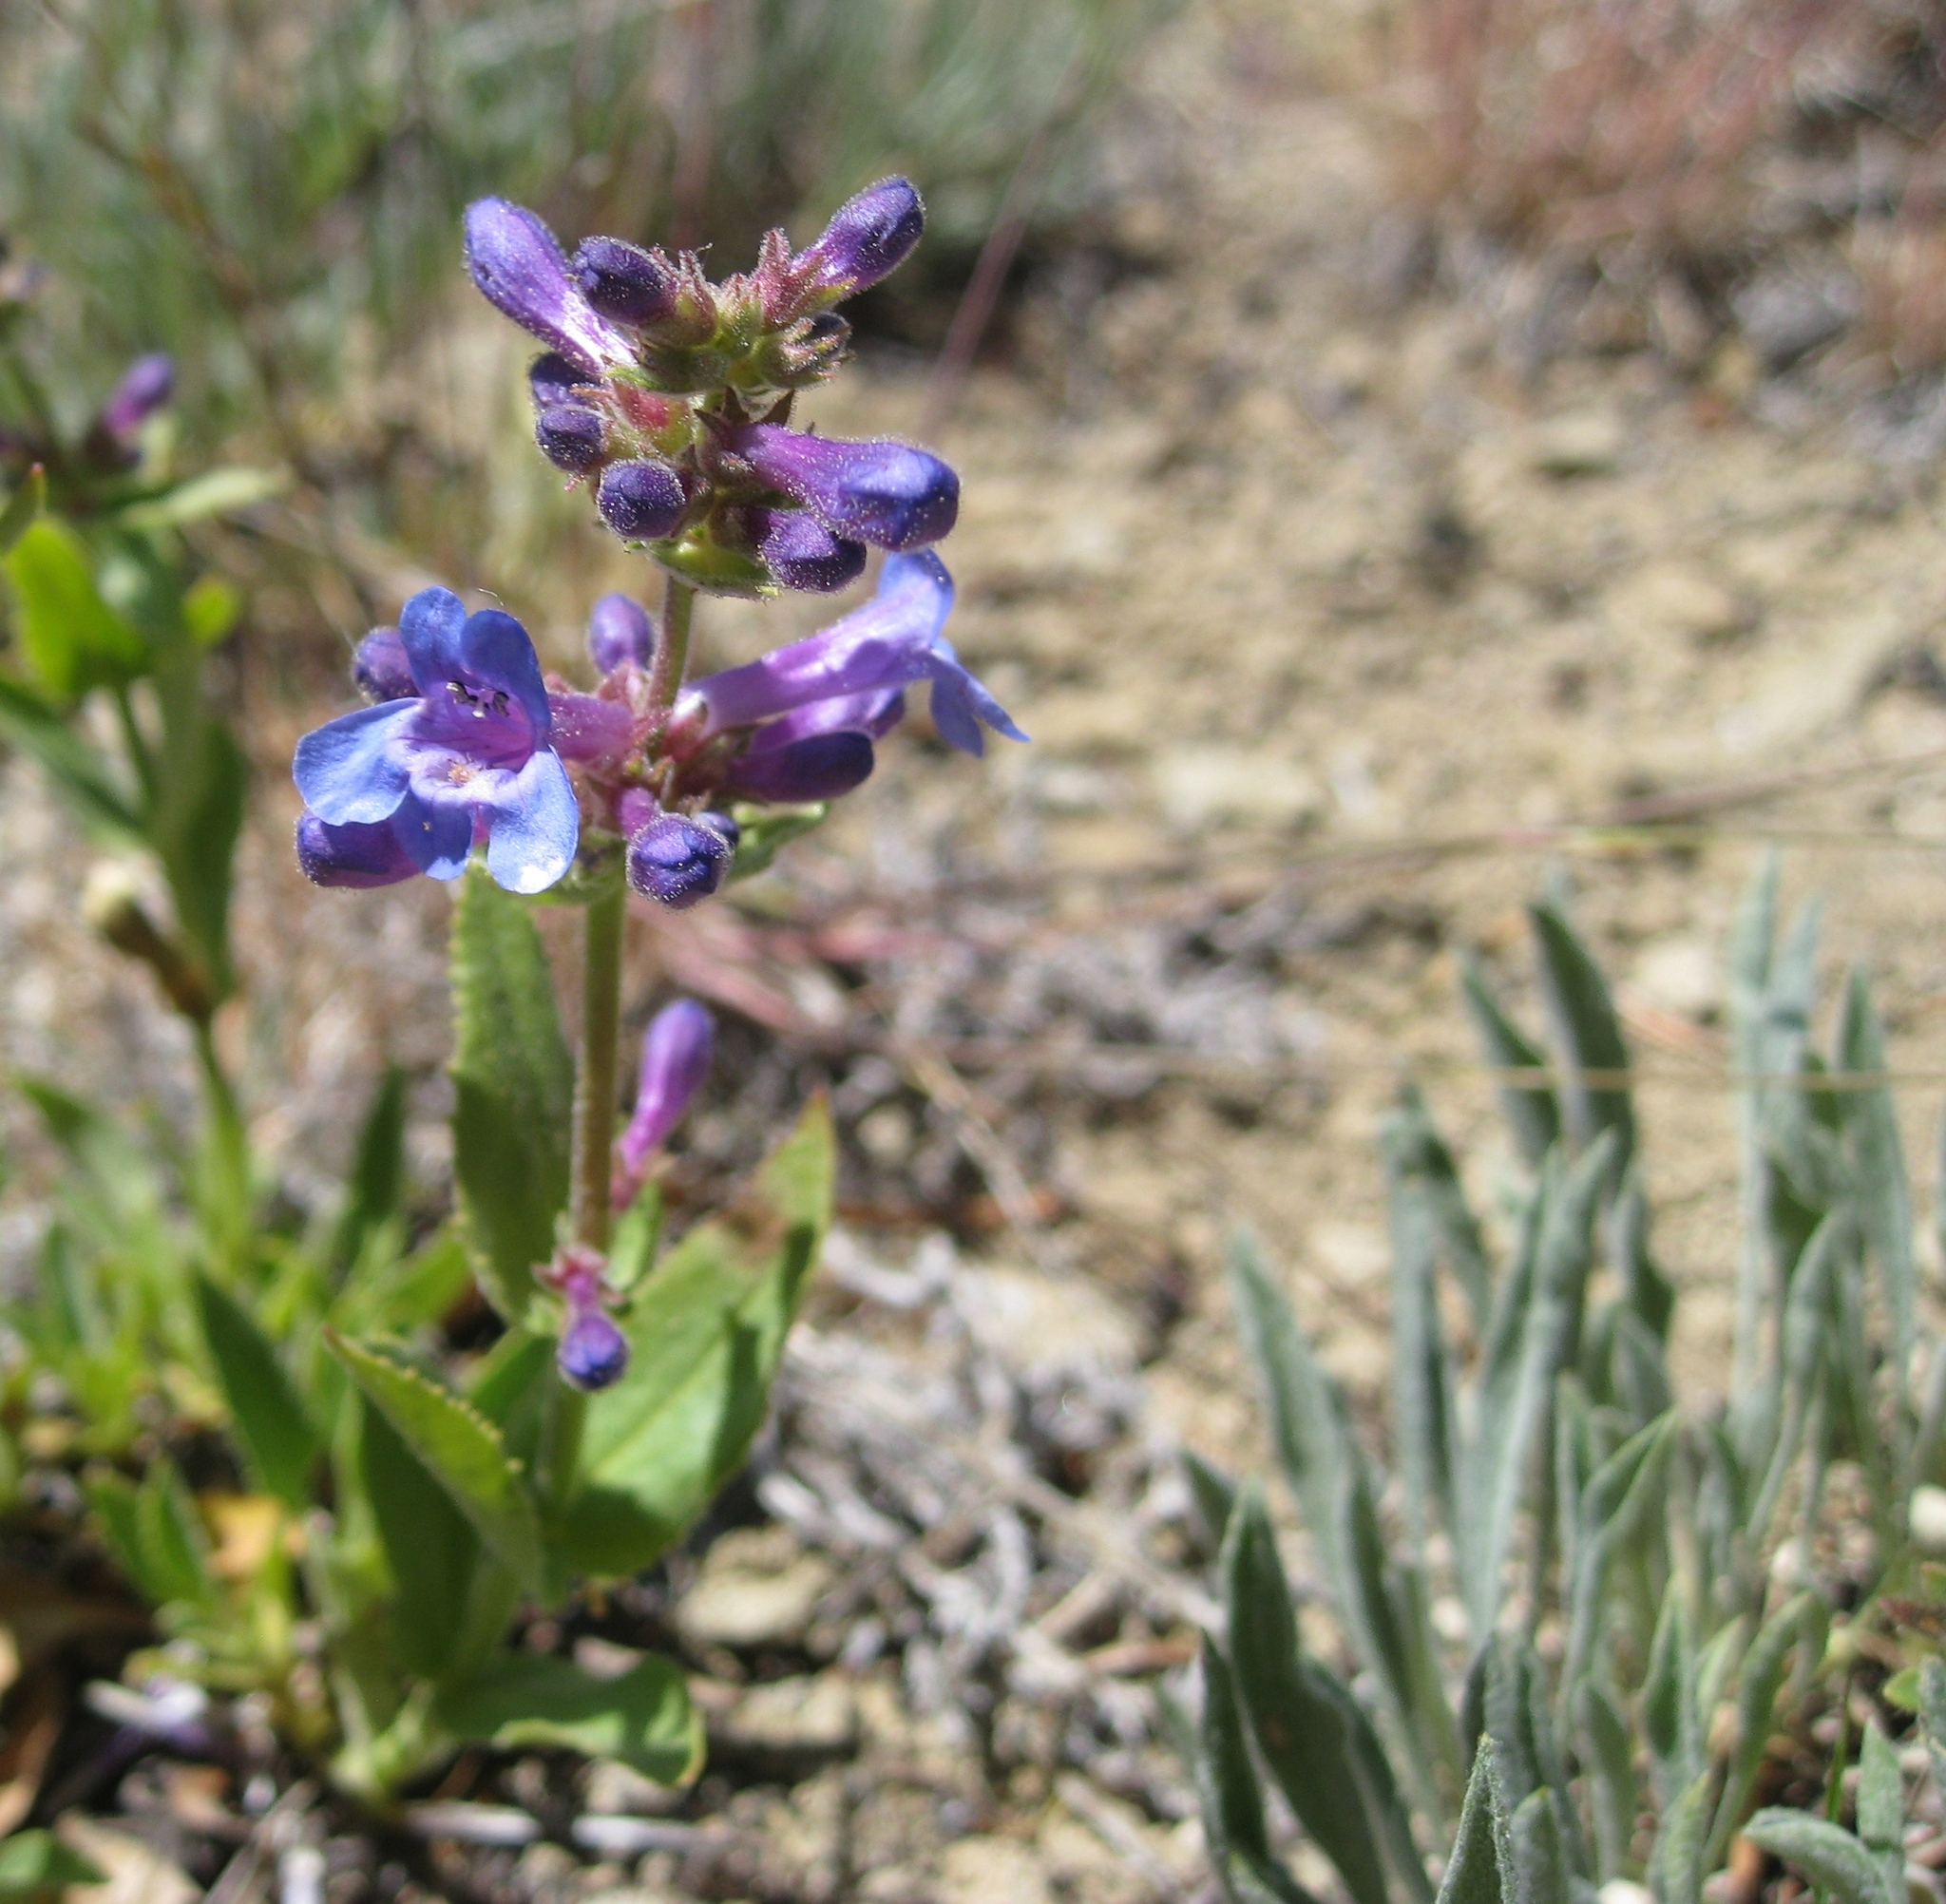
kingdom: Plantae
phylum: Tracheophyta
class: Magnoliopsida
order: Lamiales
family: Plantaginaceae
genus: Penstemon
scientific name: Penstemon pruinosus
